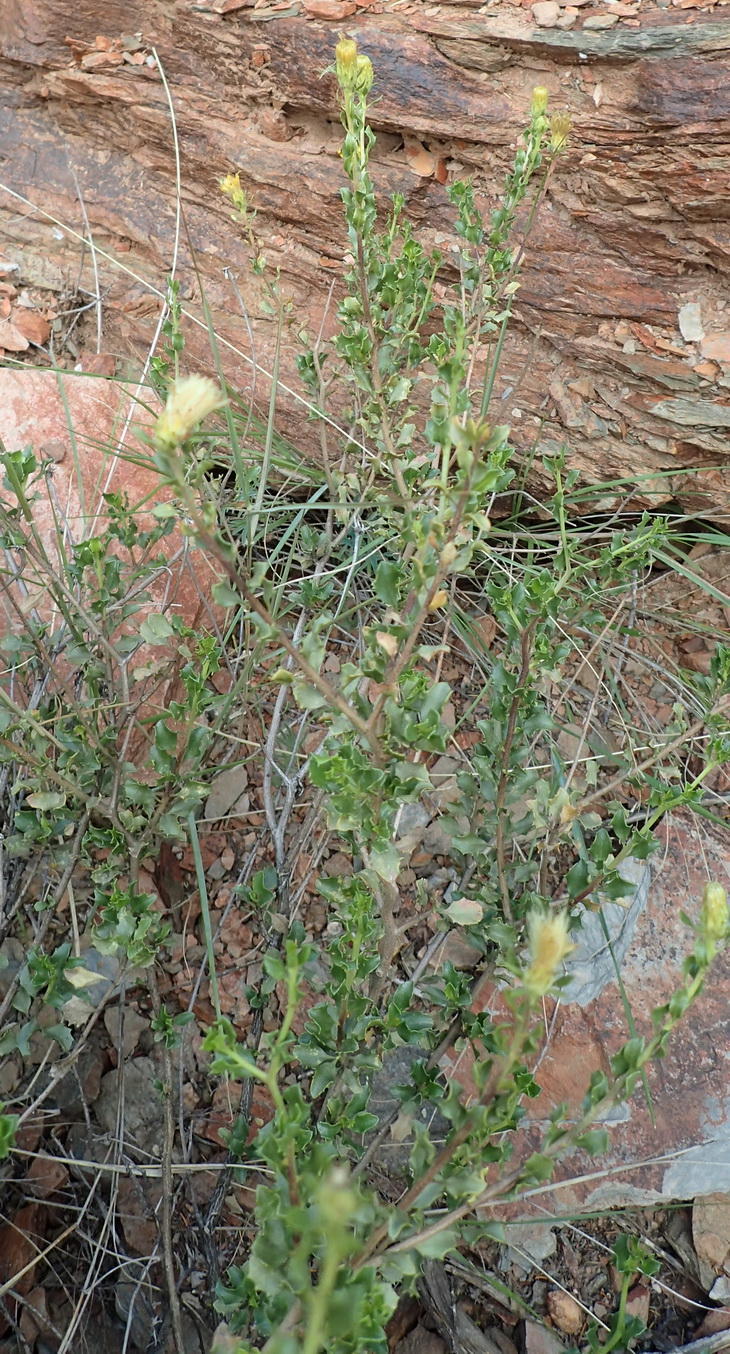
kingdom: Plantae
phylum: Tracheophyta
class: Magnoliopsida
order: Asterales
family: Asteraceae
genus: Pegolettia
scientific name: Pegolettia baccaridifolia
